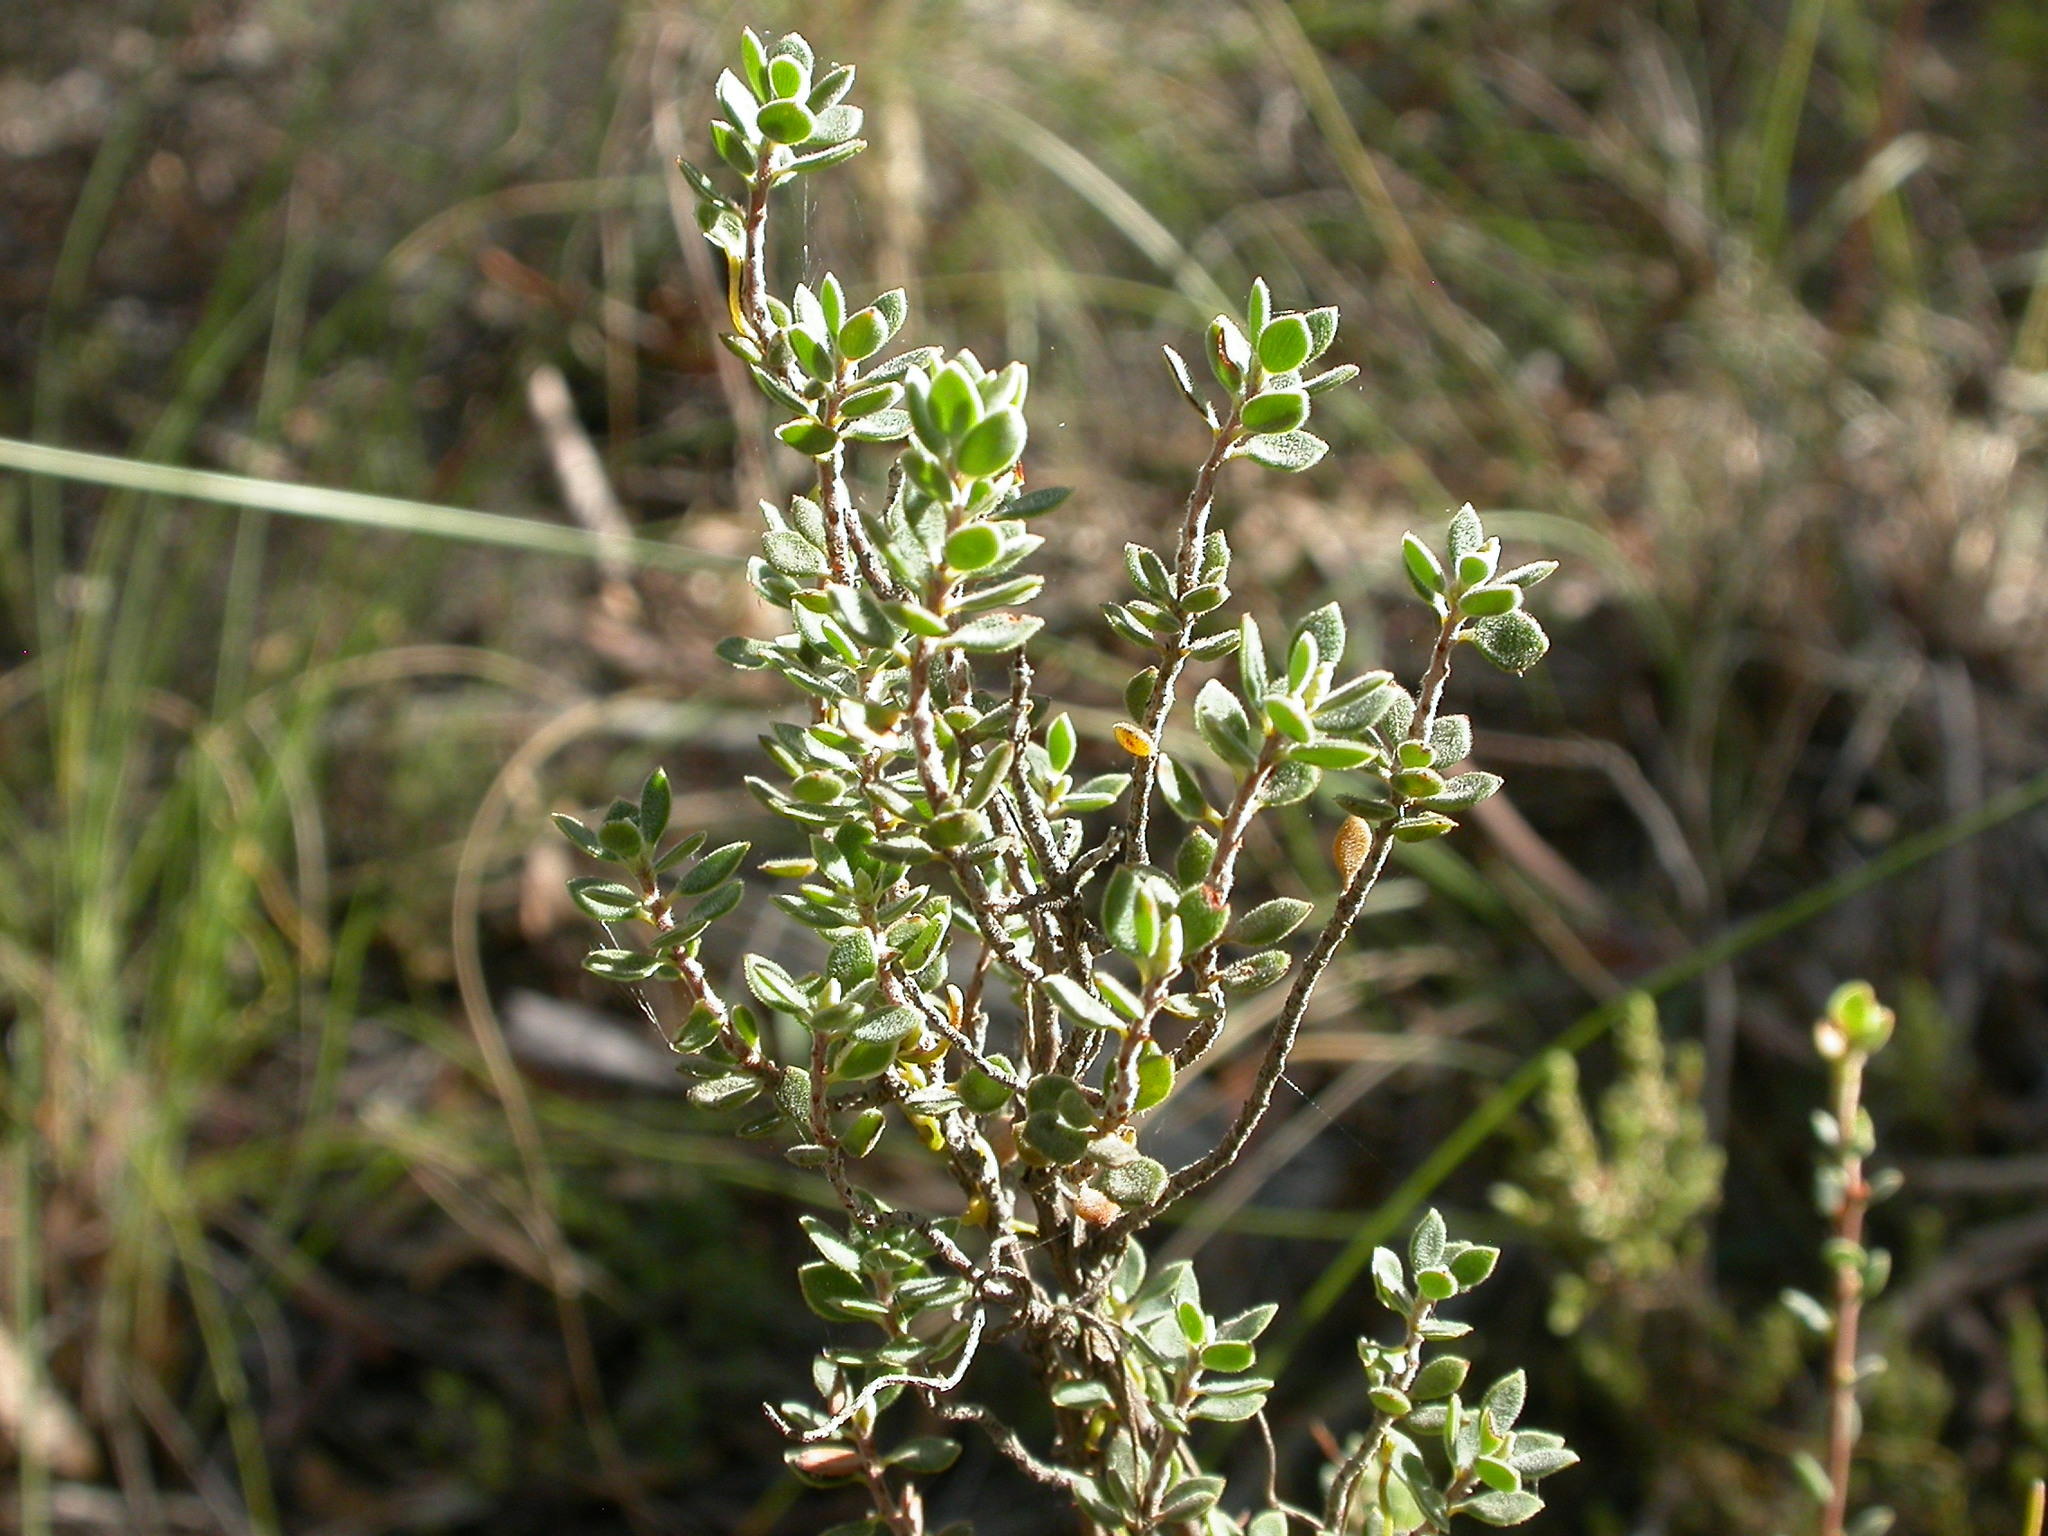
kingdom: Plantae
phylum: Tracheophyta
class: Magnoliopsida
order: Ericales
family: Ericaceae
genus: Brachyloma
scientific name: Brachyloma daphnoides
